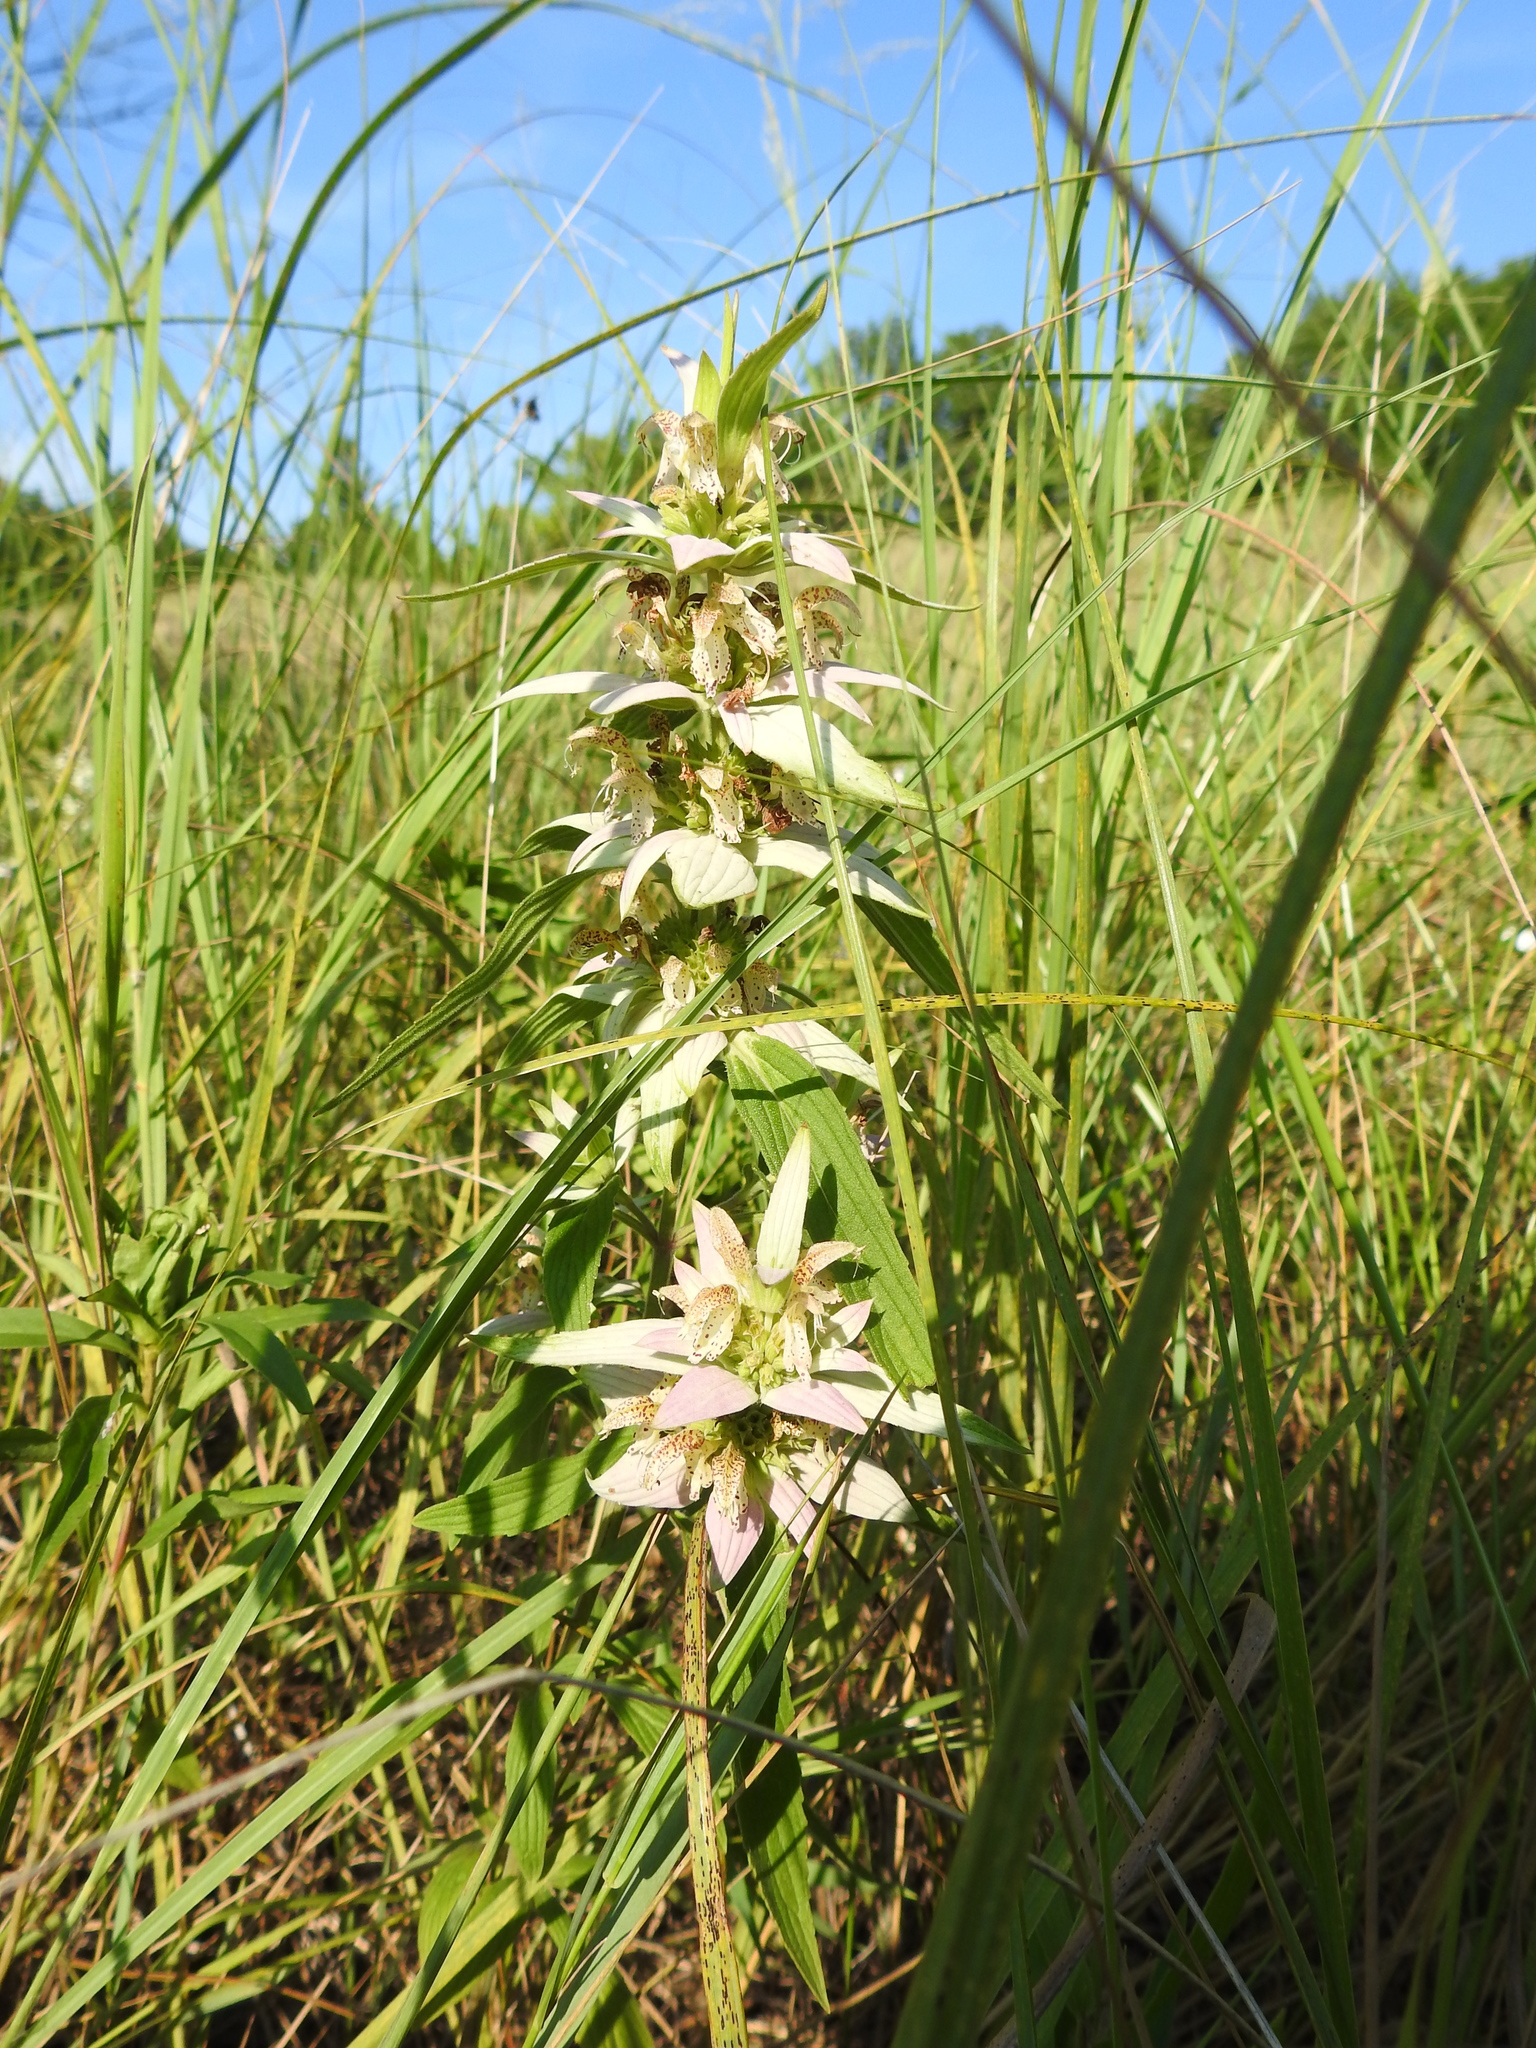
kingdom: Plantae
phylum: Tracheophyta
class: Magnoliopsida
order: Lamiales
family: Lamiaceae
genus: Monarda
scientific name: Monarda punctata
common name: Dotted monarda
